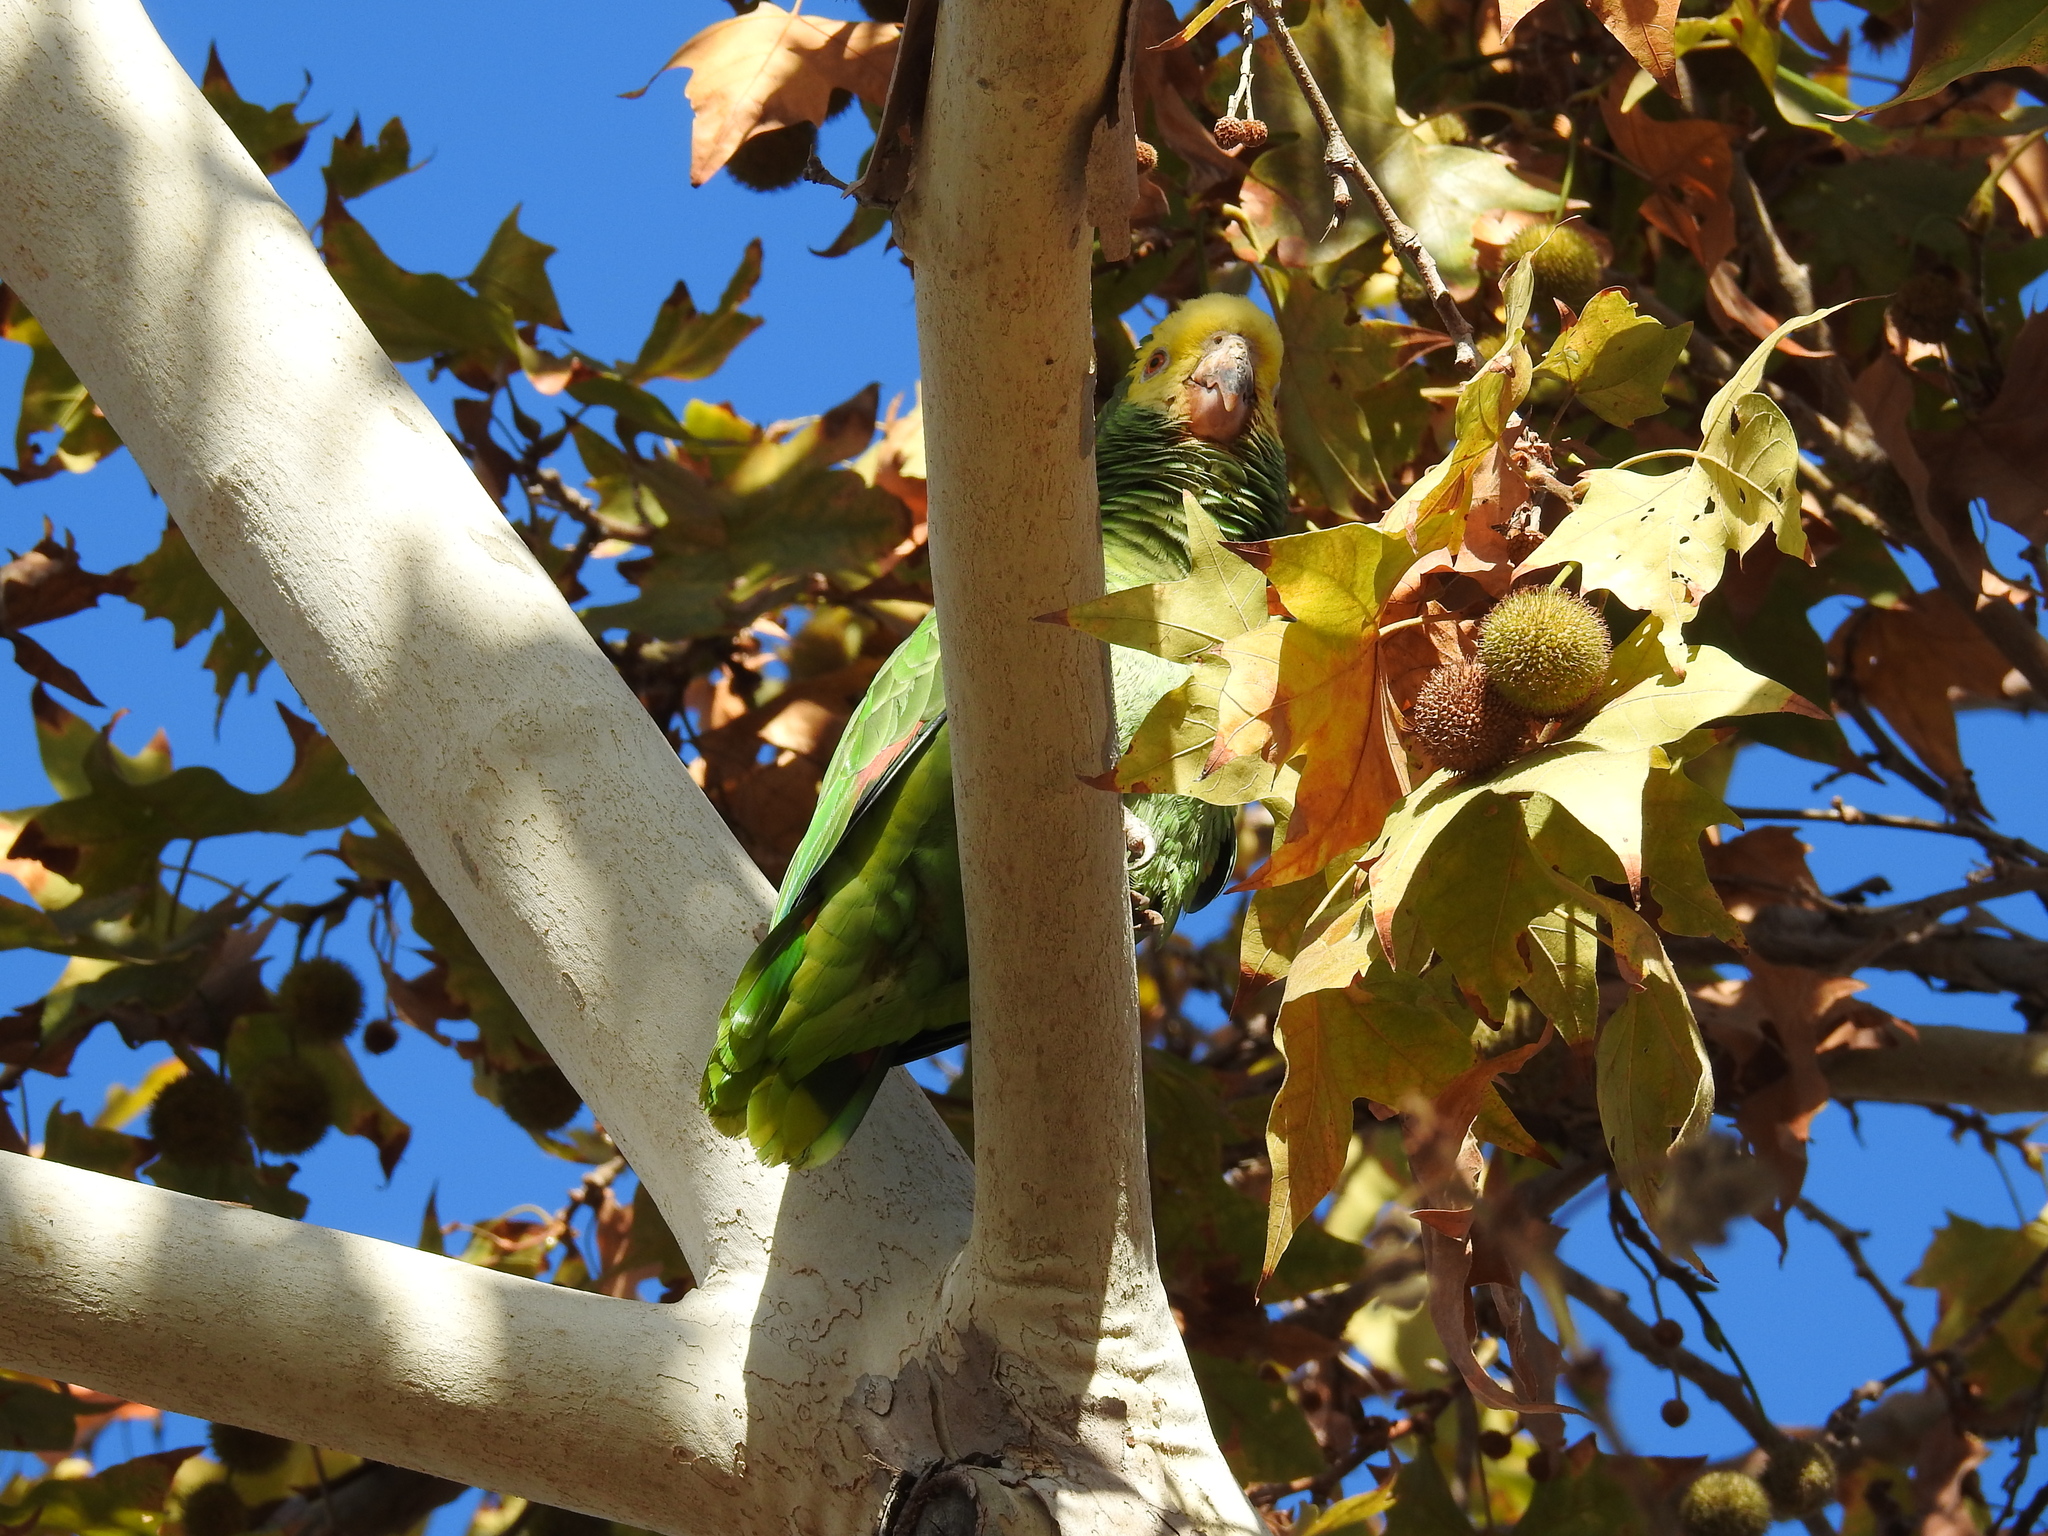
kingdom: Animalia
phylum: Chordata
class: Aves
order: Psittaciformes
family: Psittacidae
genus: Amazona
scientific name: Amazona oratrix
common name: Yellow-headed amazon
